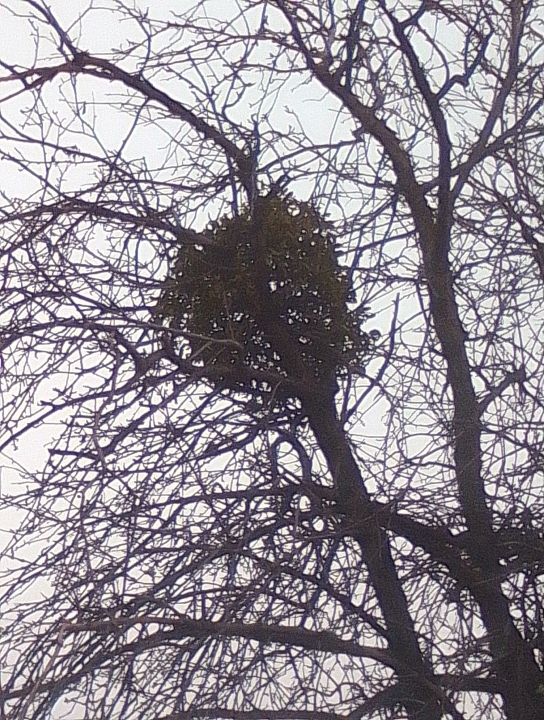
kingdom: Plantae
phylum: Tracheophyta
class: Magnoliopsida
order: Santalales
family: Viscaceae
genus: Viscum
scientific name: Viscum album
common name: Mistletoe
